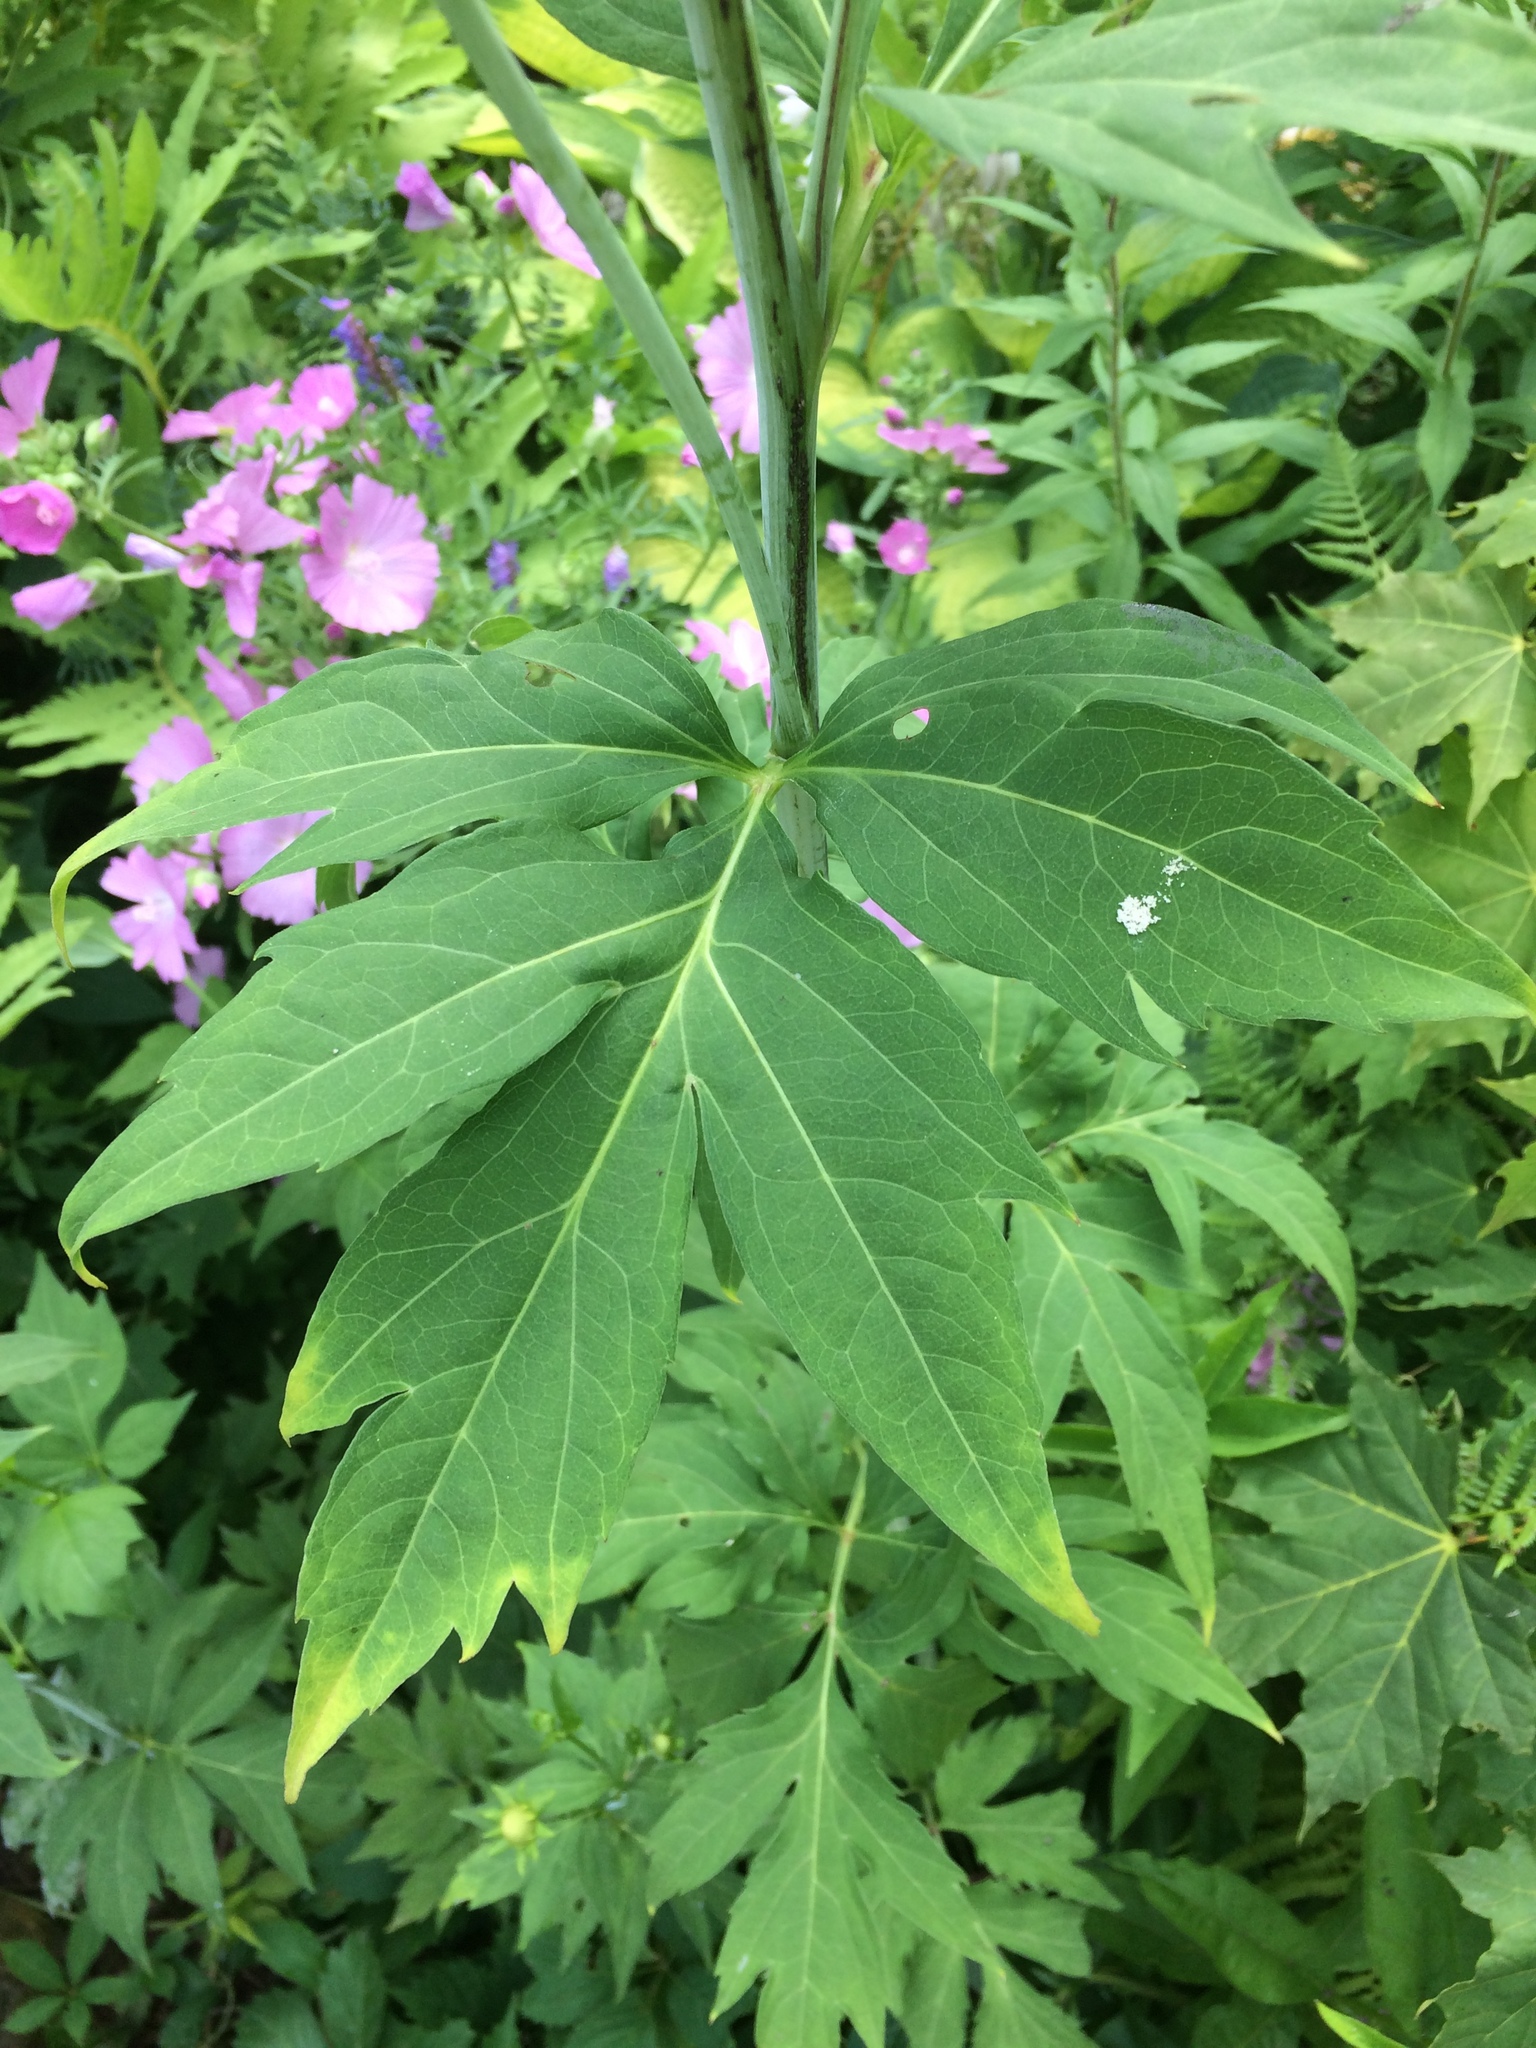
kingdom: Plantae
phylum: Tracheophyta
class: Magnoliopsida
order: Asterales
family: Asteraceae
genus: Rudbeckia
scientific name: Rudbeckia laciniata
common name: Coneflower
